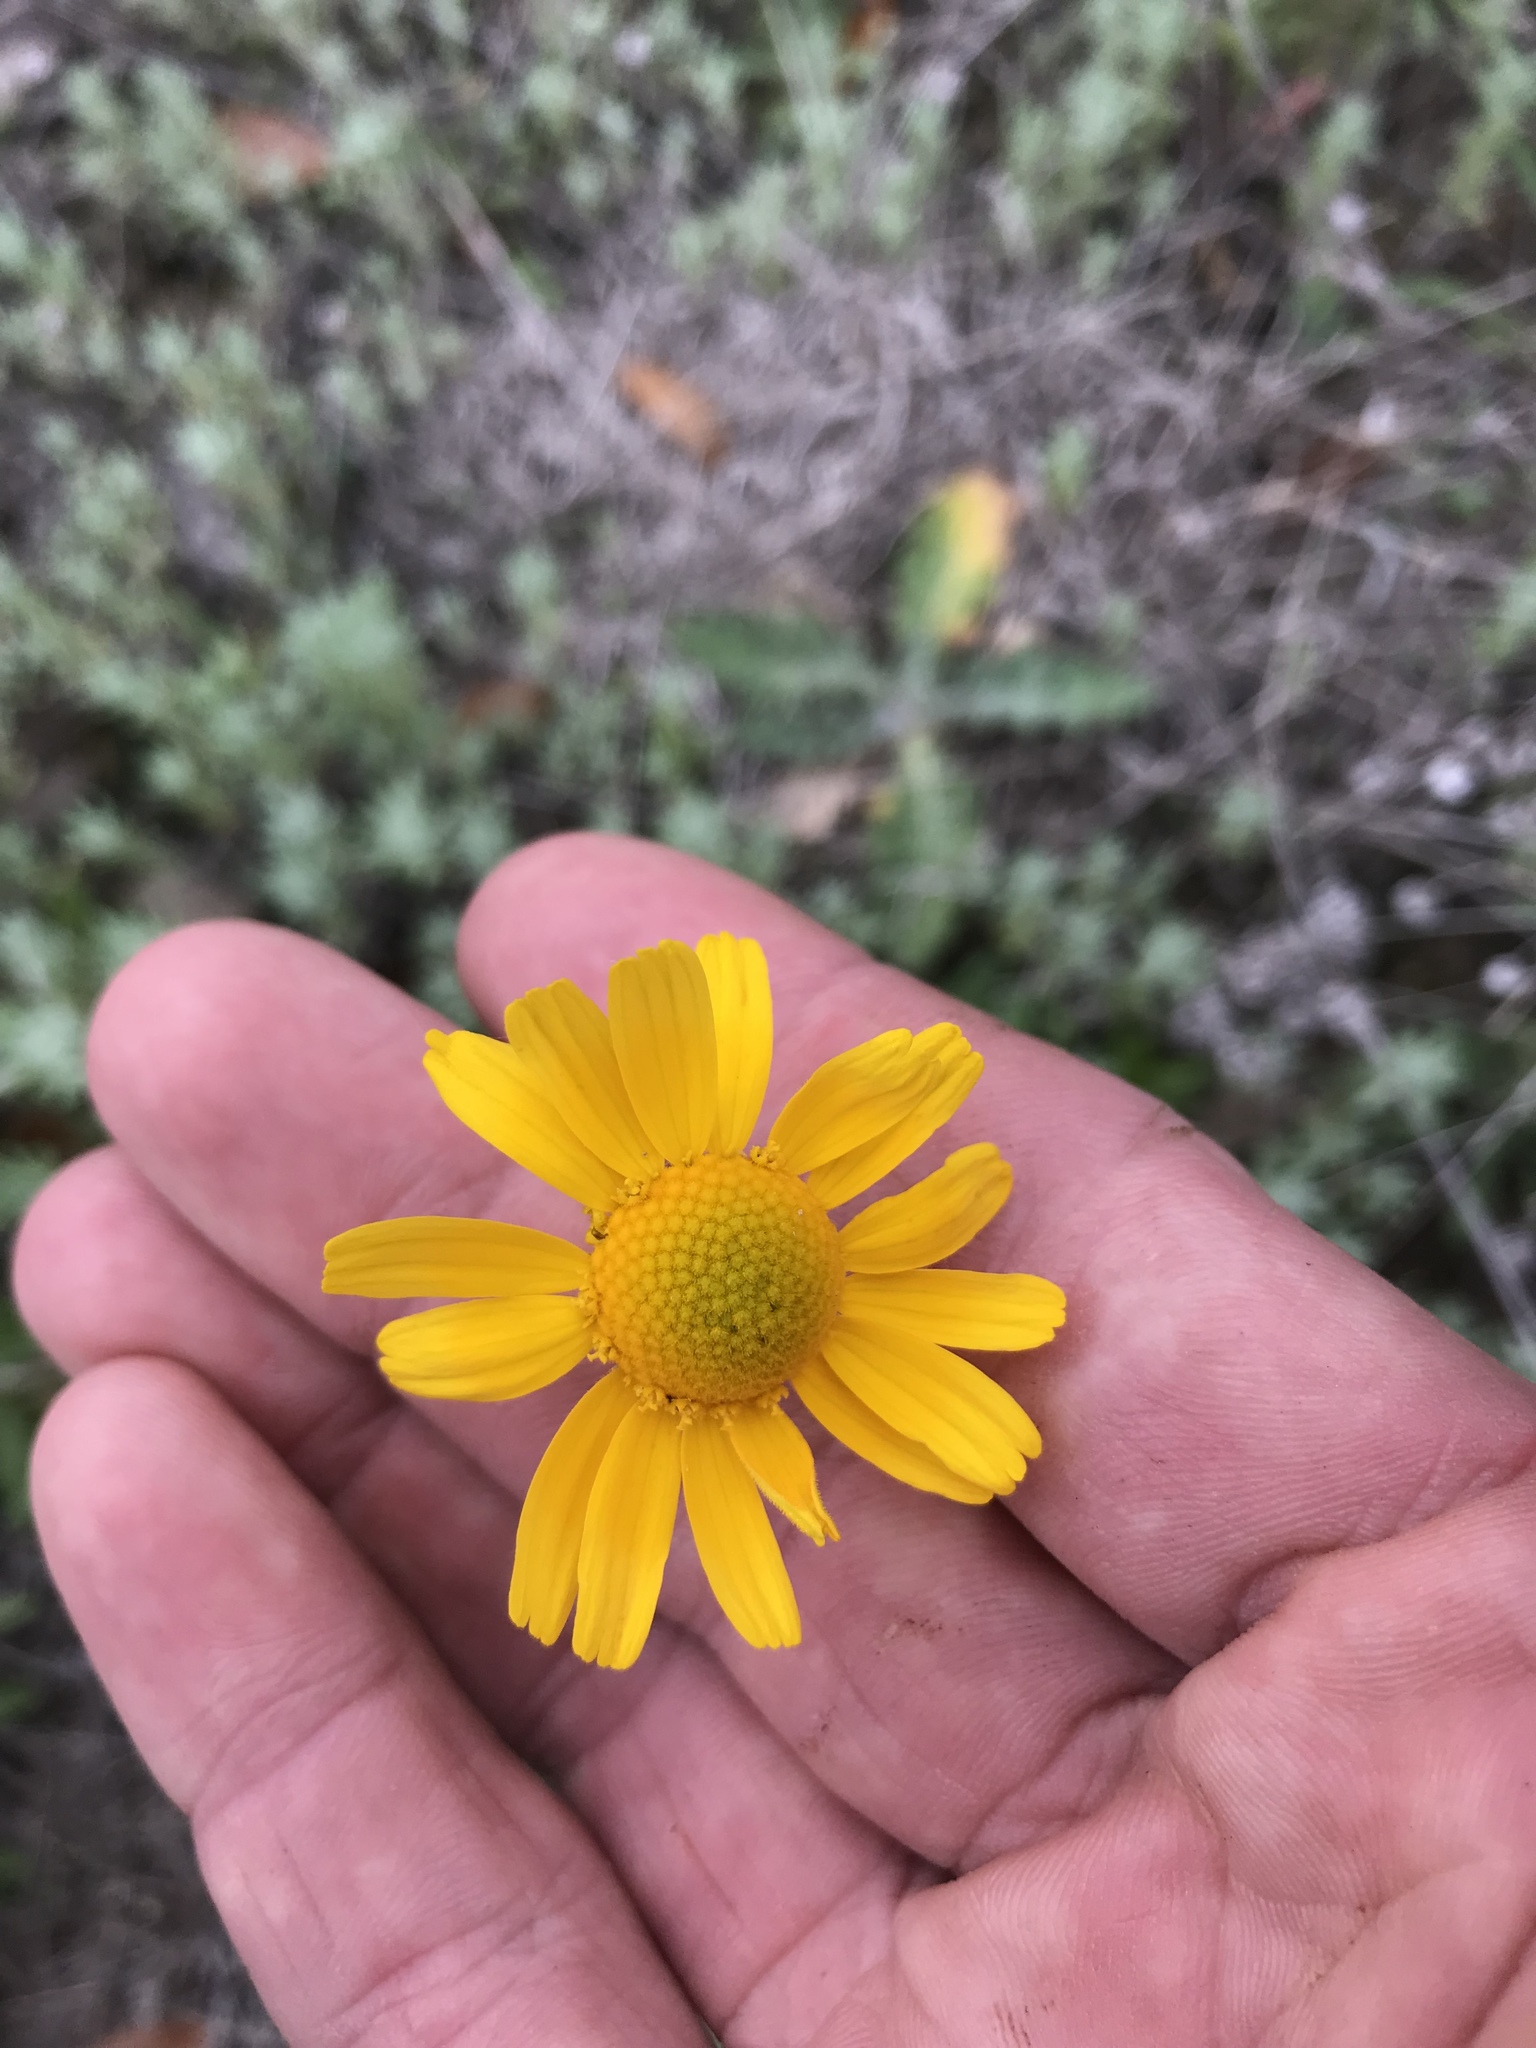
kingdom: Plantae
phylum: Tracheophyta
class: Magnoliopsida
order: Asterales
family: Asteraceae
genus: Tetraneuris
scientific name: Tetraneuris linearifolia
